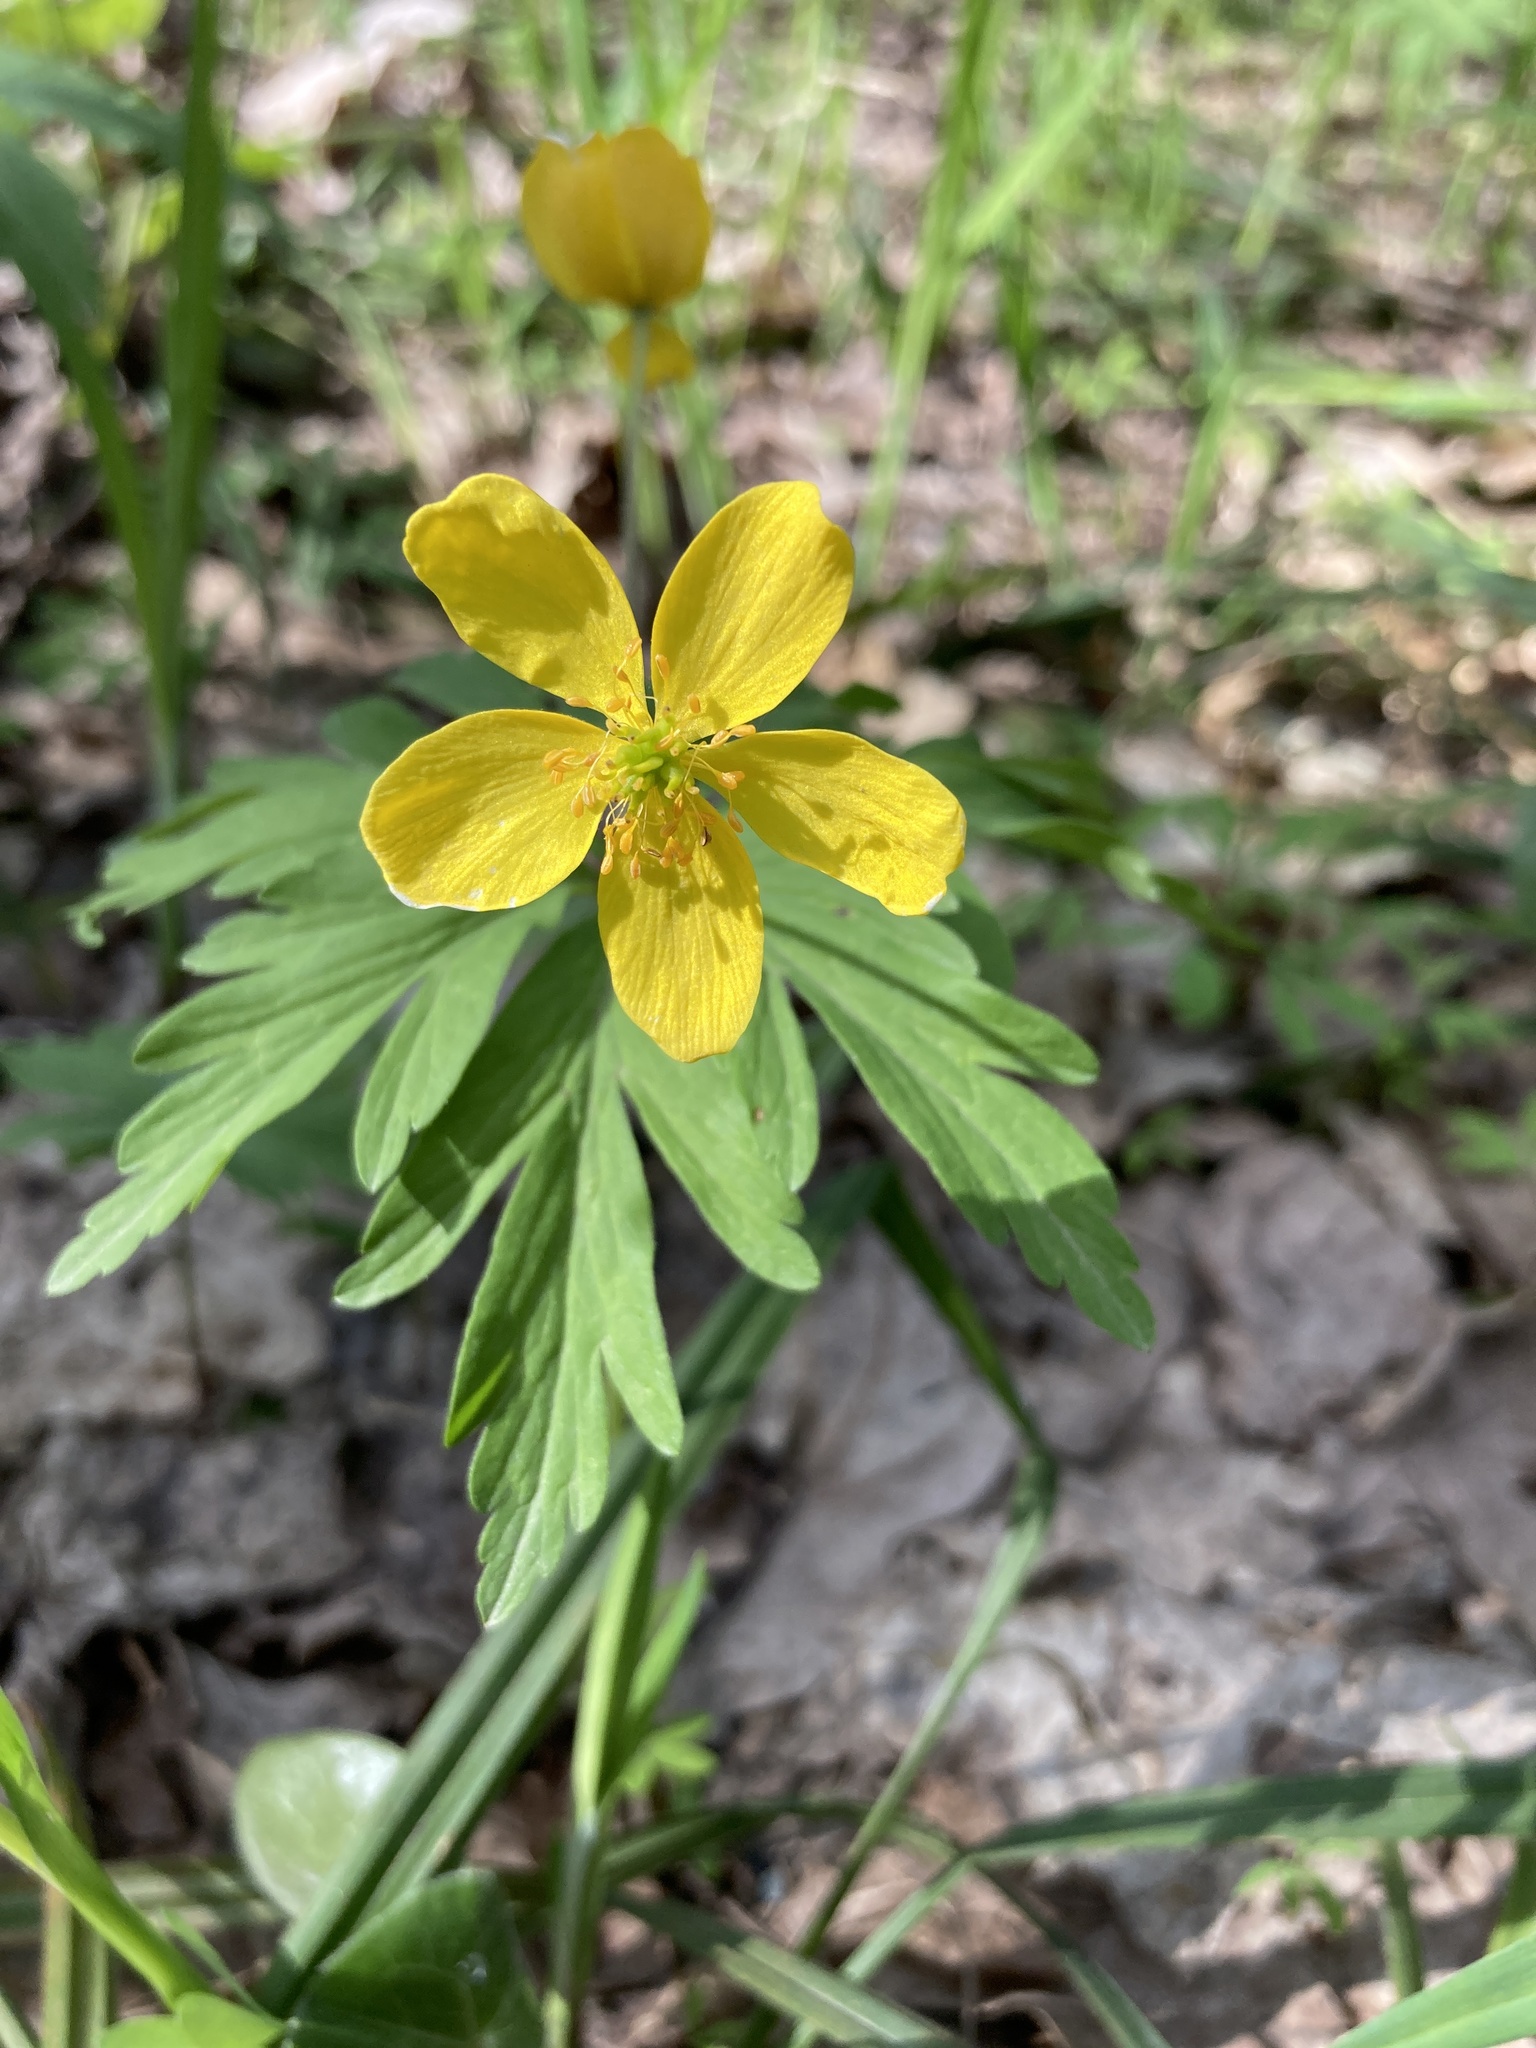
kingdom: Plantae
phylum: Tracheophyta
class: Magnoliopsida
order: Ranunculales
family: Ranunculaceae
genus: Anemone
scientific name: Anemone ranunculoides
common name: Yellow anemone
